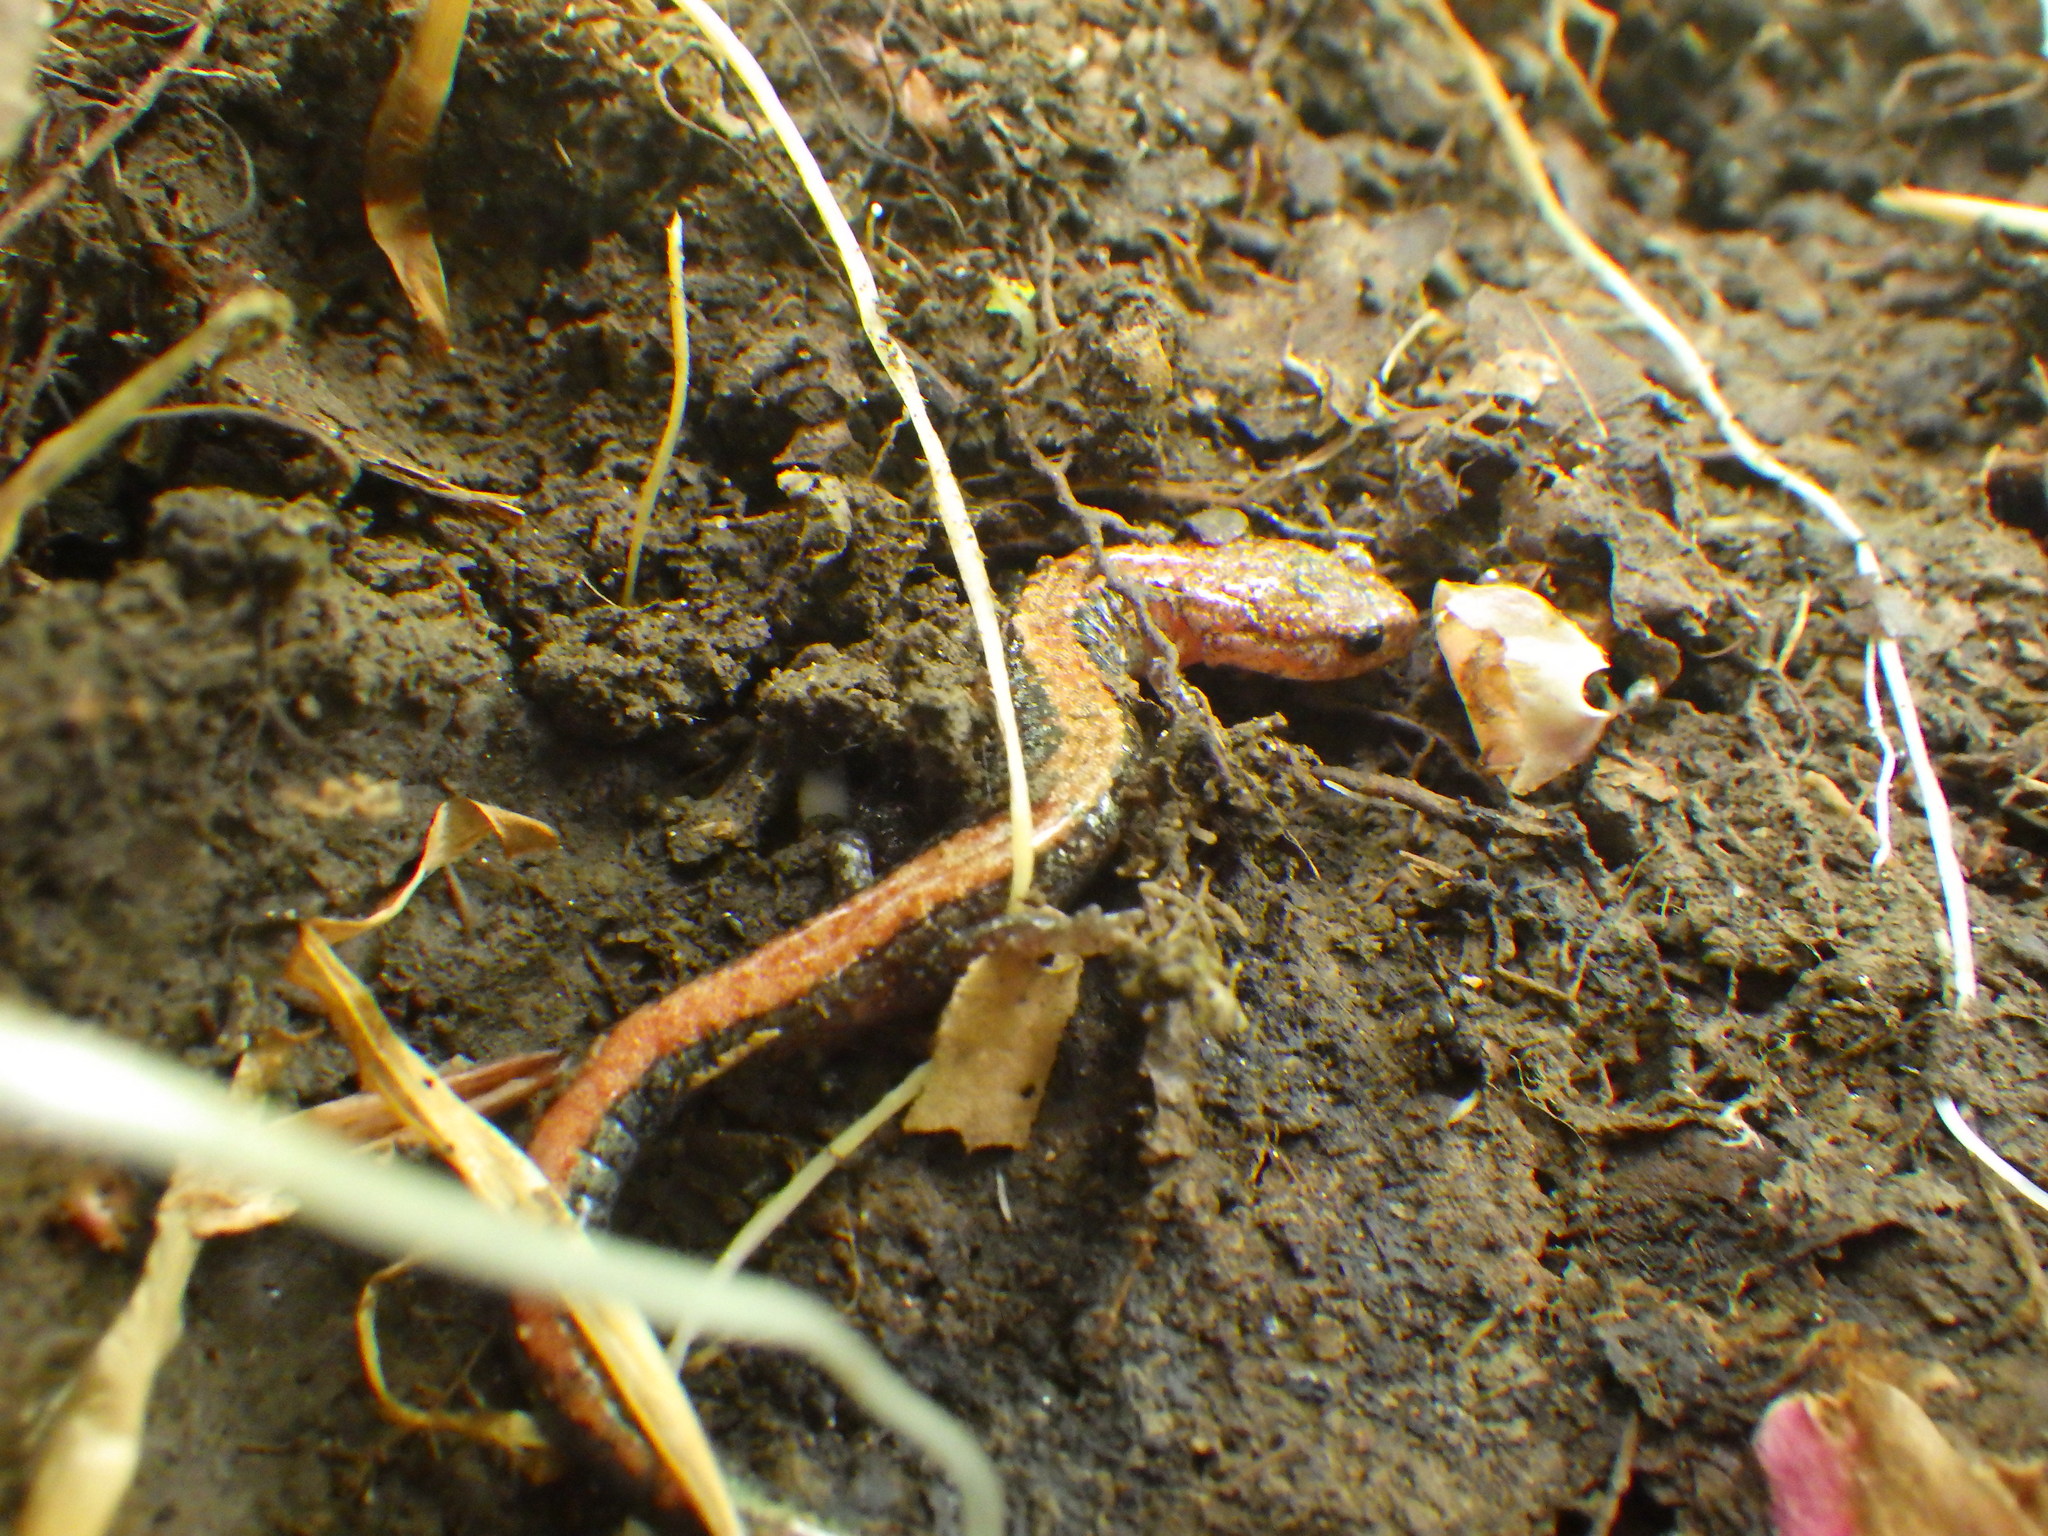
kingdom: Animalia
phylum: Chordata
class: Amphibia
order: Caudata
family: Plethodontidae
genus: Plethodon
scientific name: Plethodon cinereus
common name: Redback salamander
